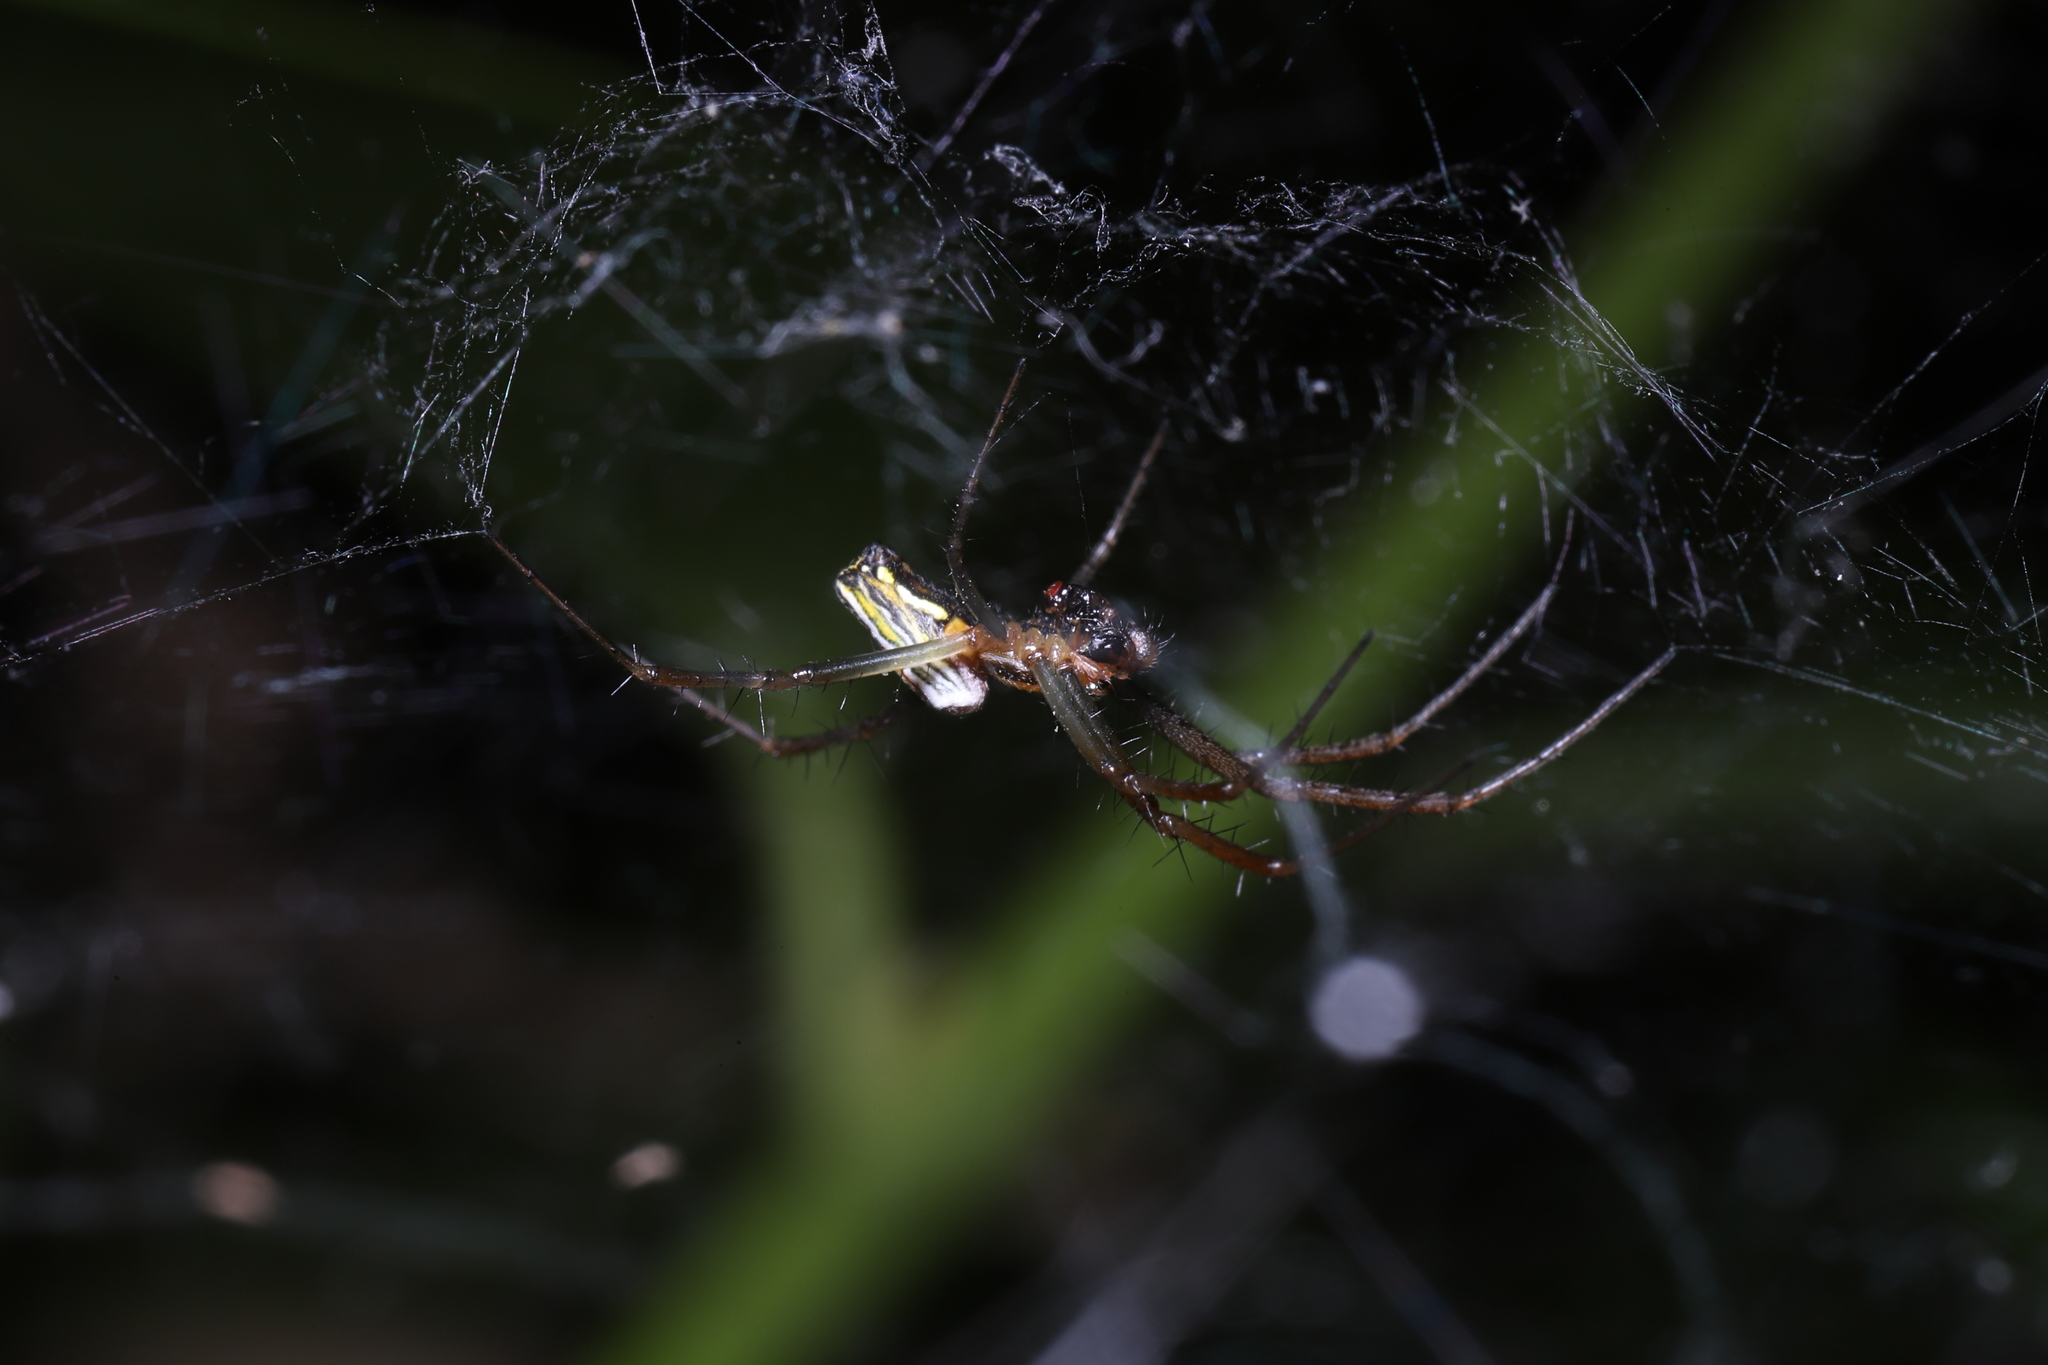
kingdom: Animalia
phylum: Arthropoda
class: Arachnida
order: Araneae
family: Araneidae
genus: Mecynogea
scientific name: Mecynogea lemniscata
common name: Orb weavers
